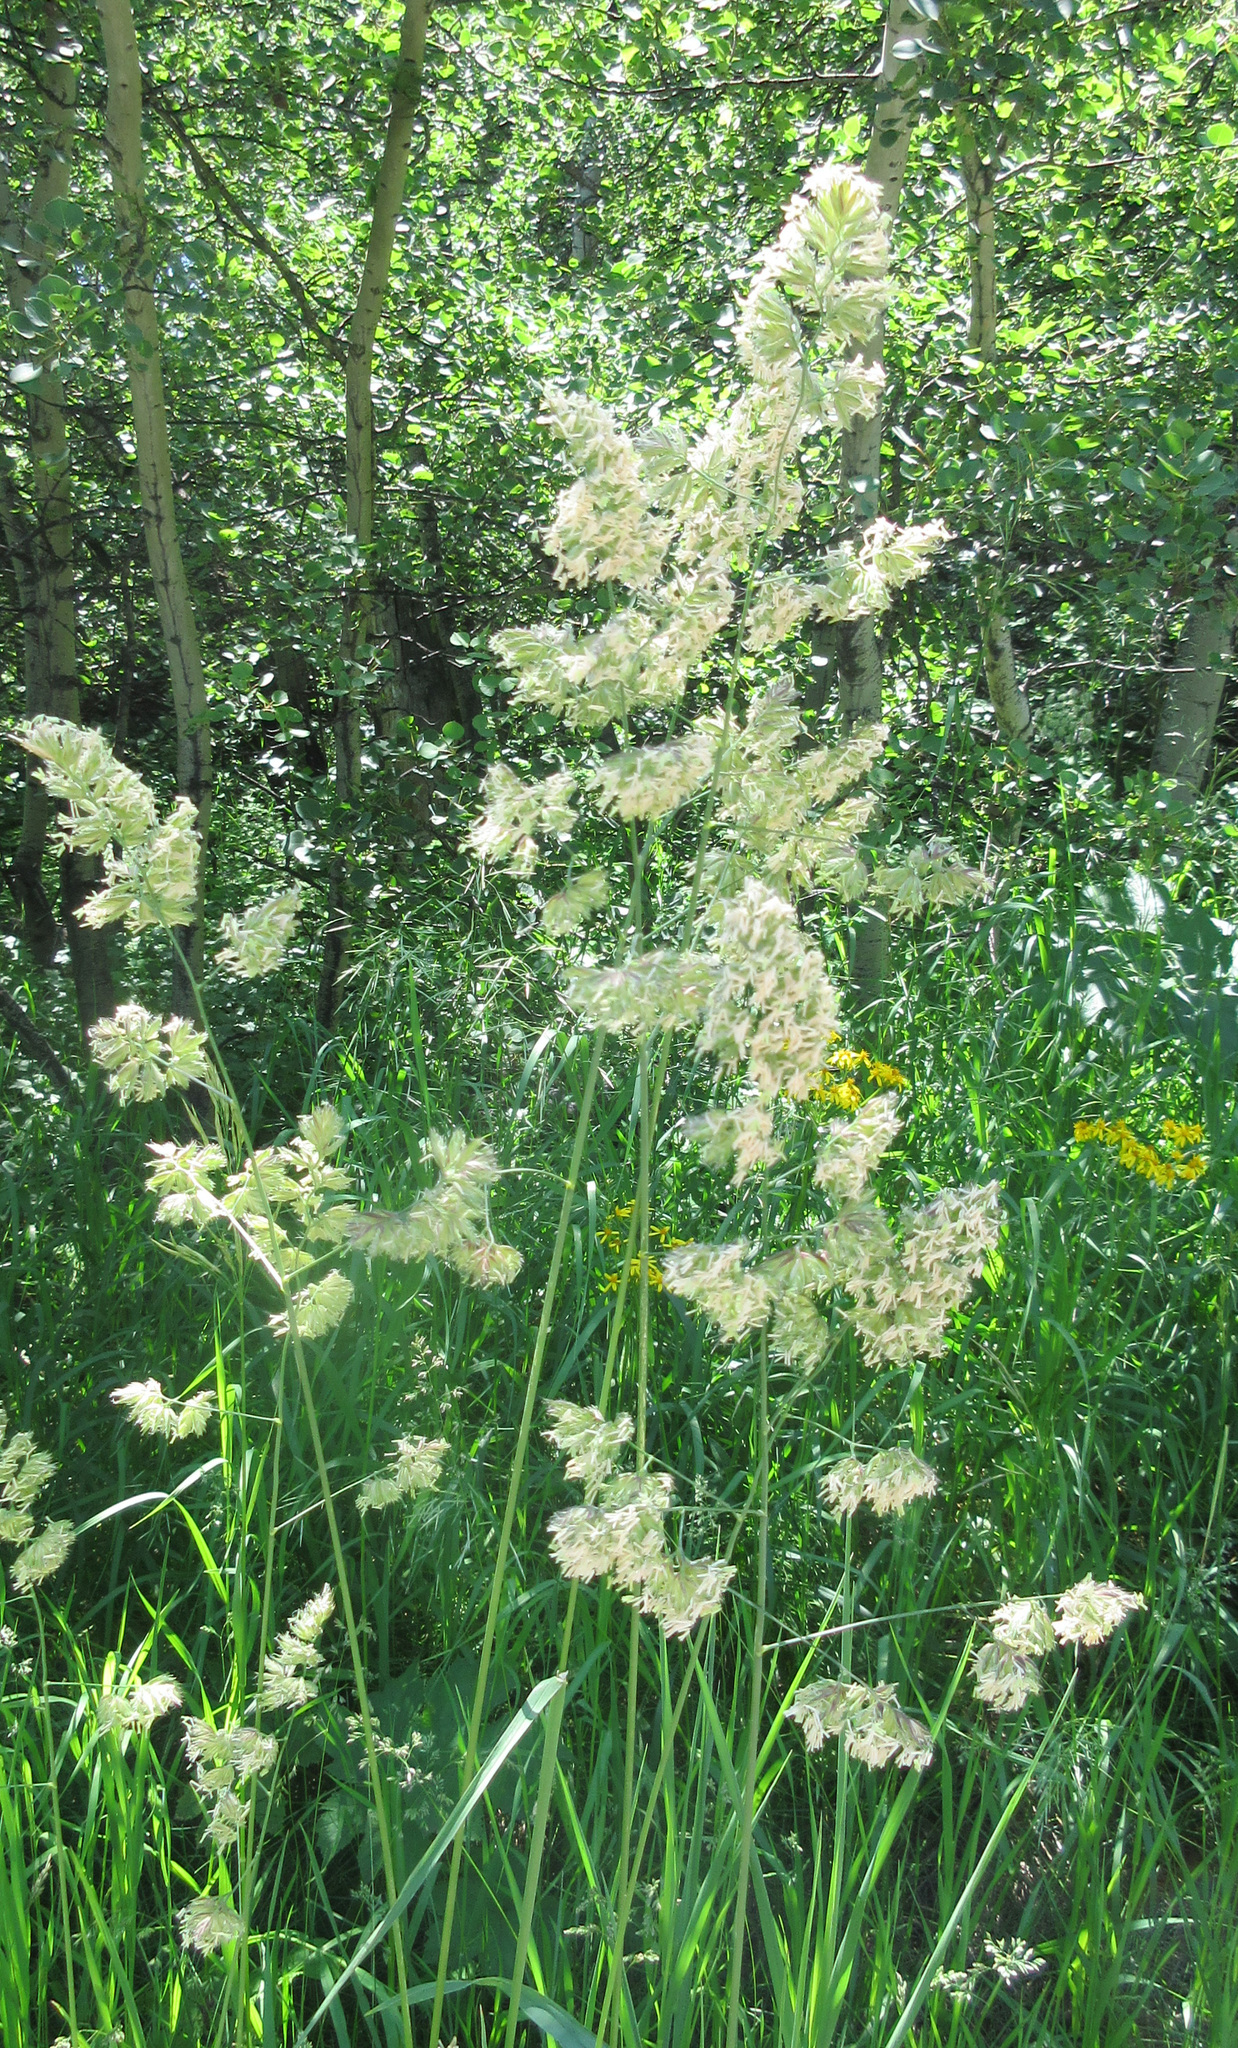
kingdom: Plantae
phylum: Tracheophyta
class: Liliopsida
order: Poales
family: Poaceae
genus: Dactylis
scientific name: Dactylis glomerata
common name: Orchardgrass
